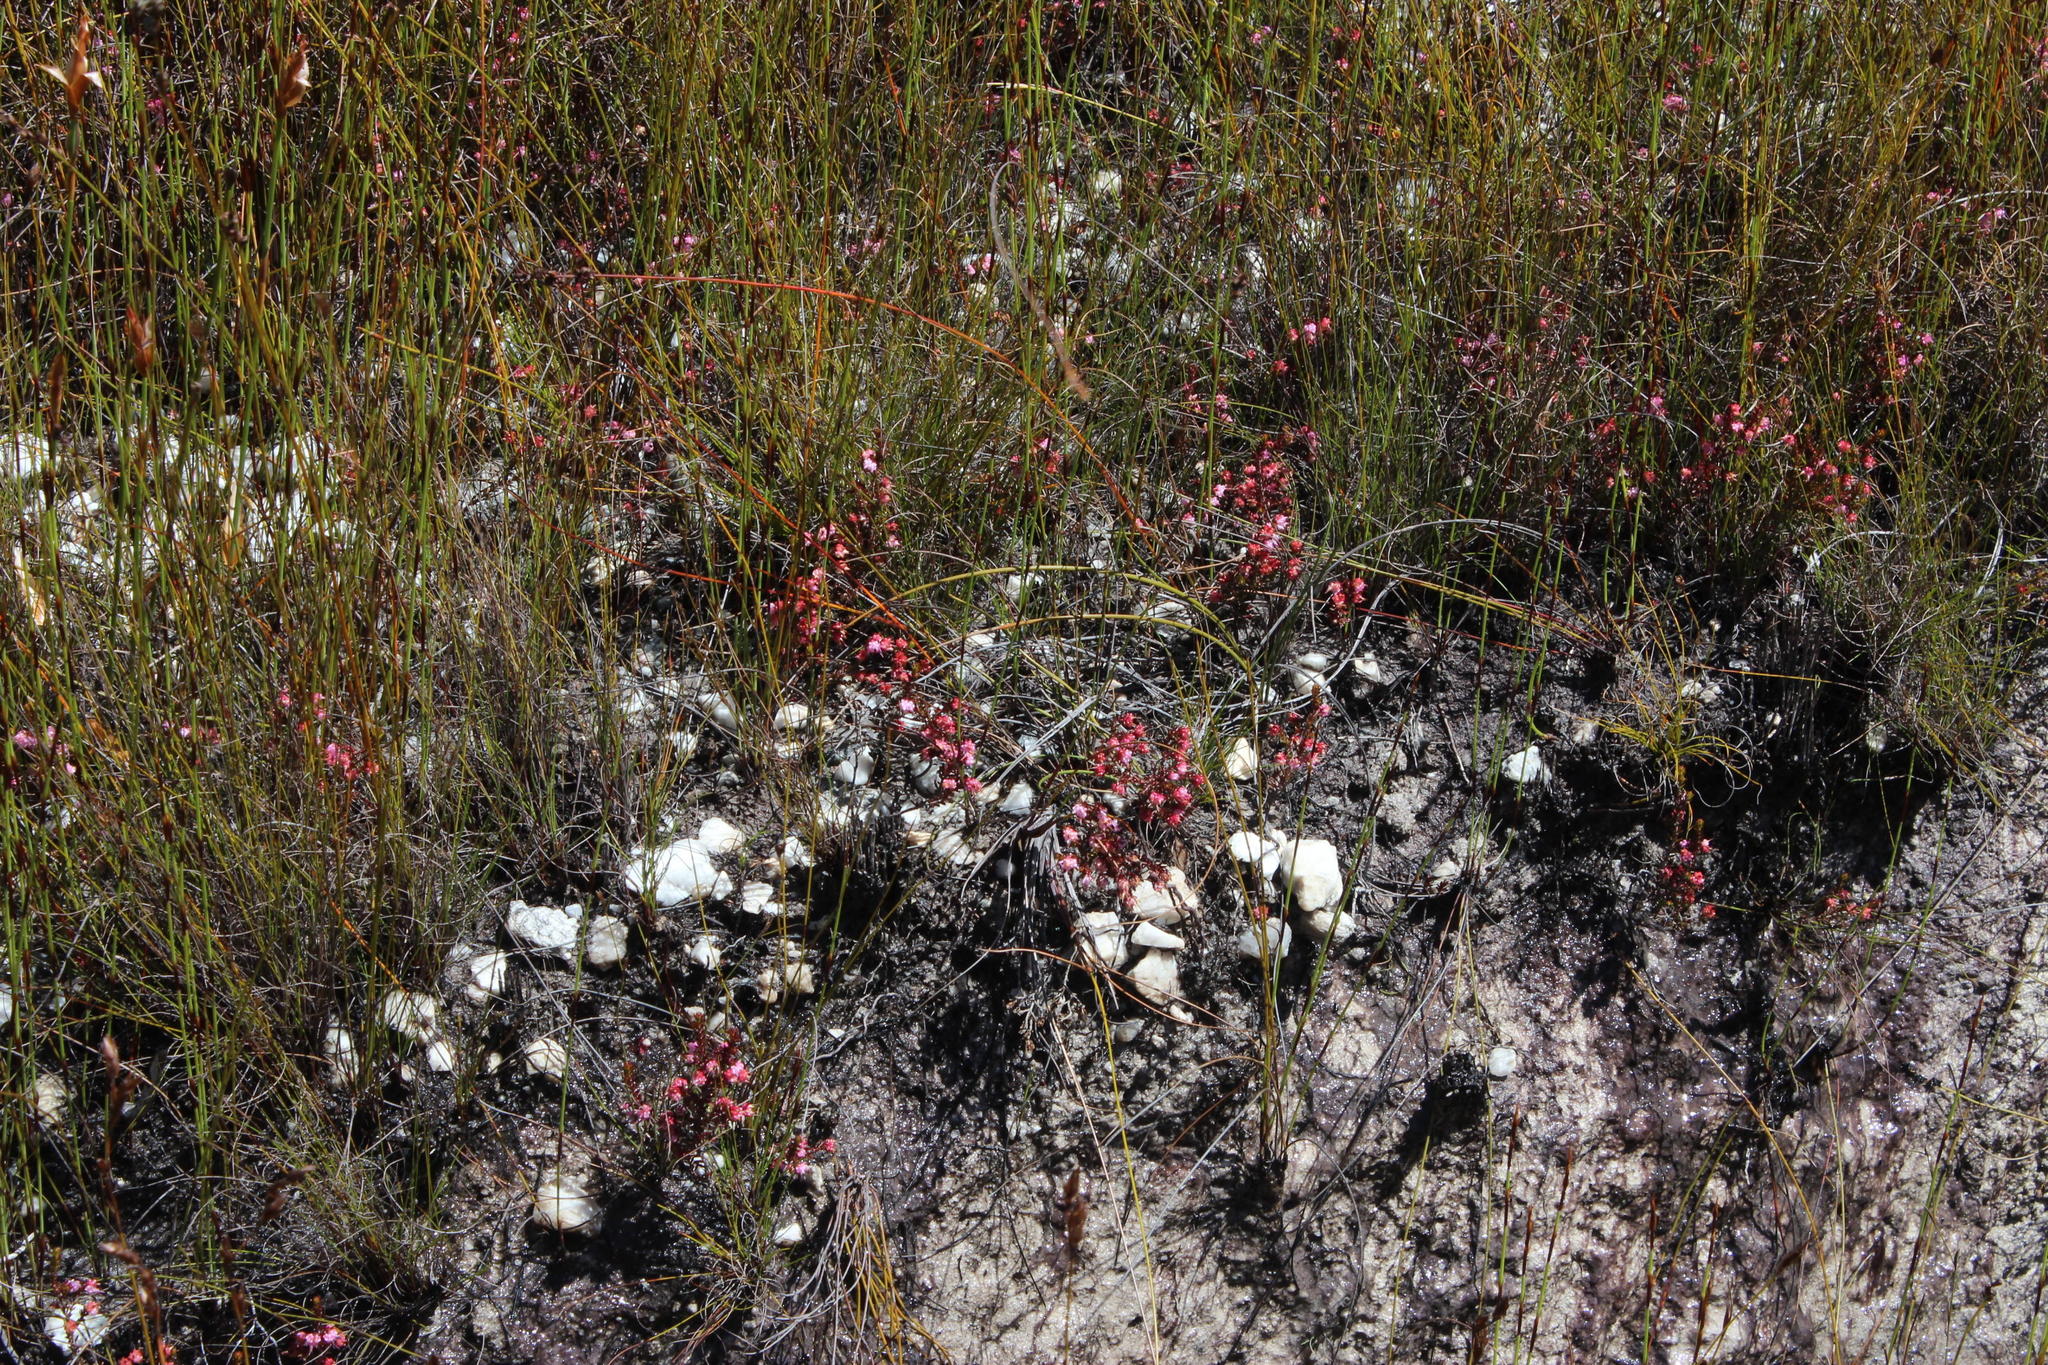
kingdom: Plantae
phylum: Tracheophyta
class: Magnoliopsida
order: Ericales
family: Ericaceae
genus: Erica
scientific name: Erica spumosa
